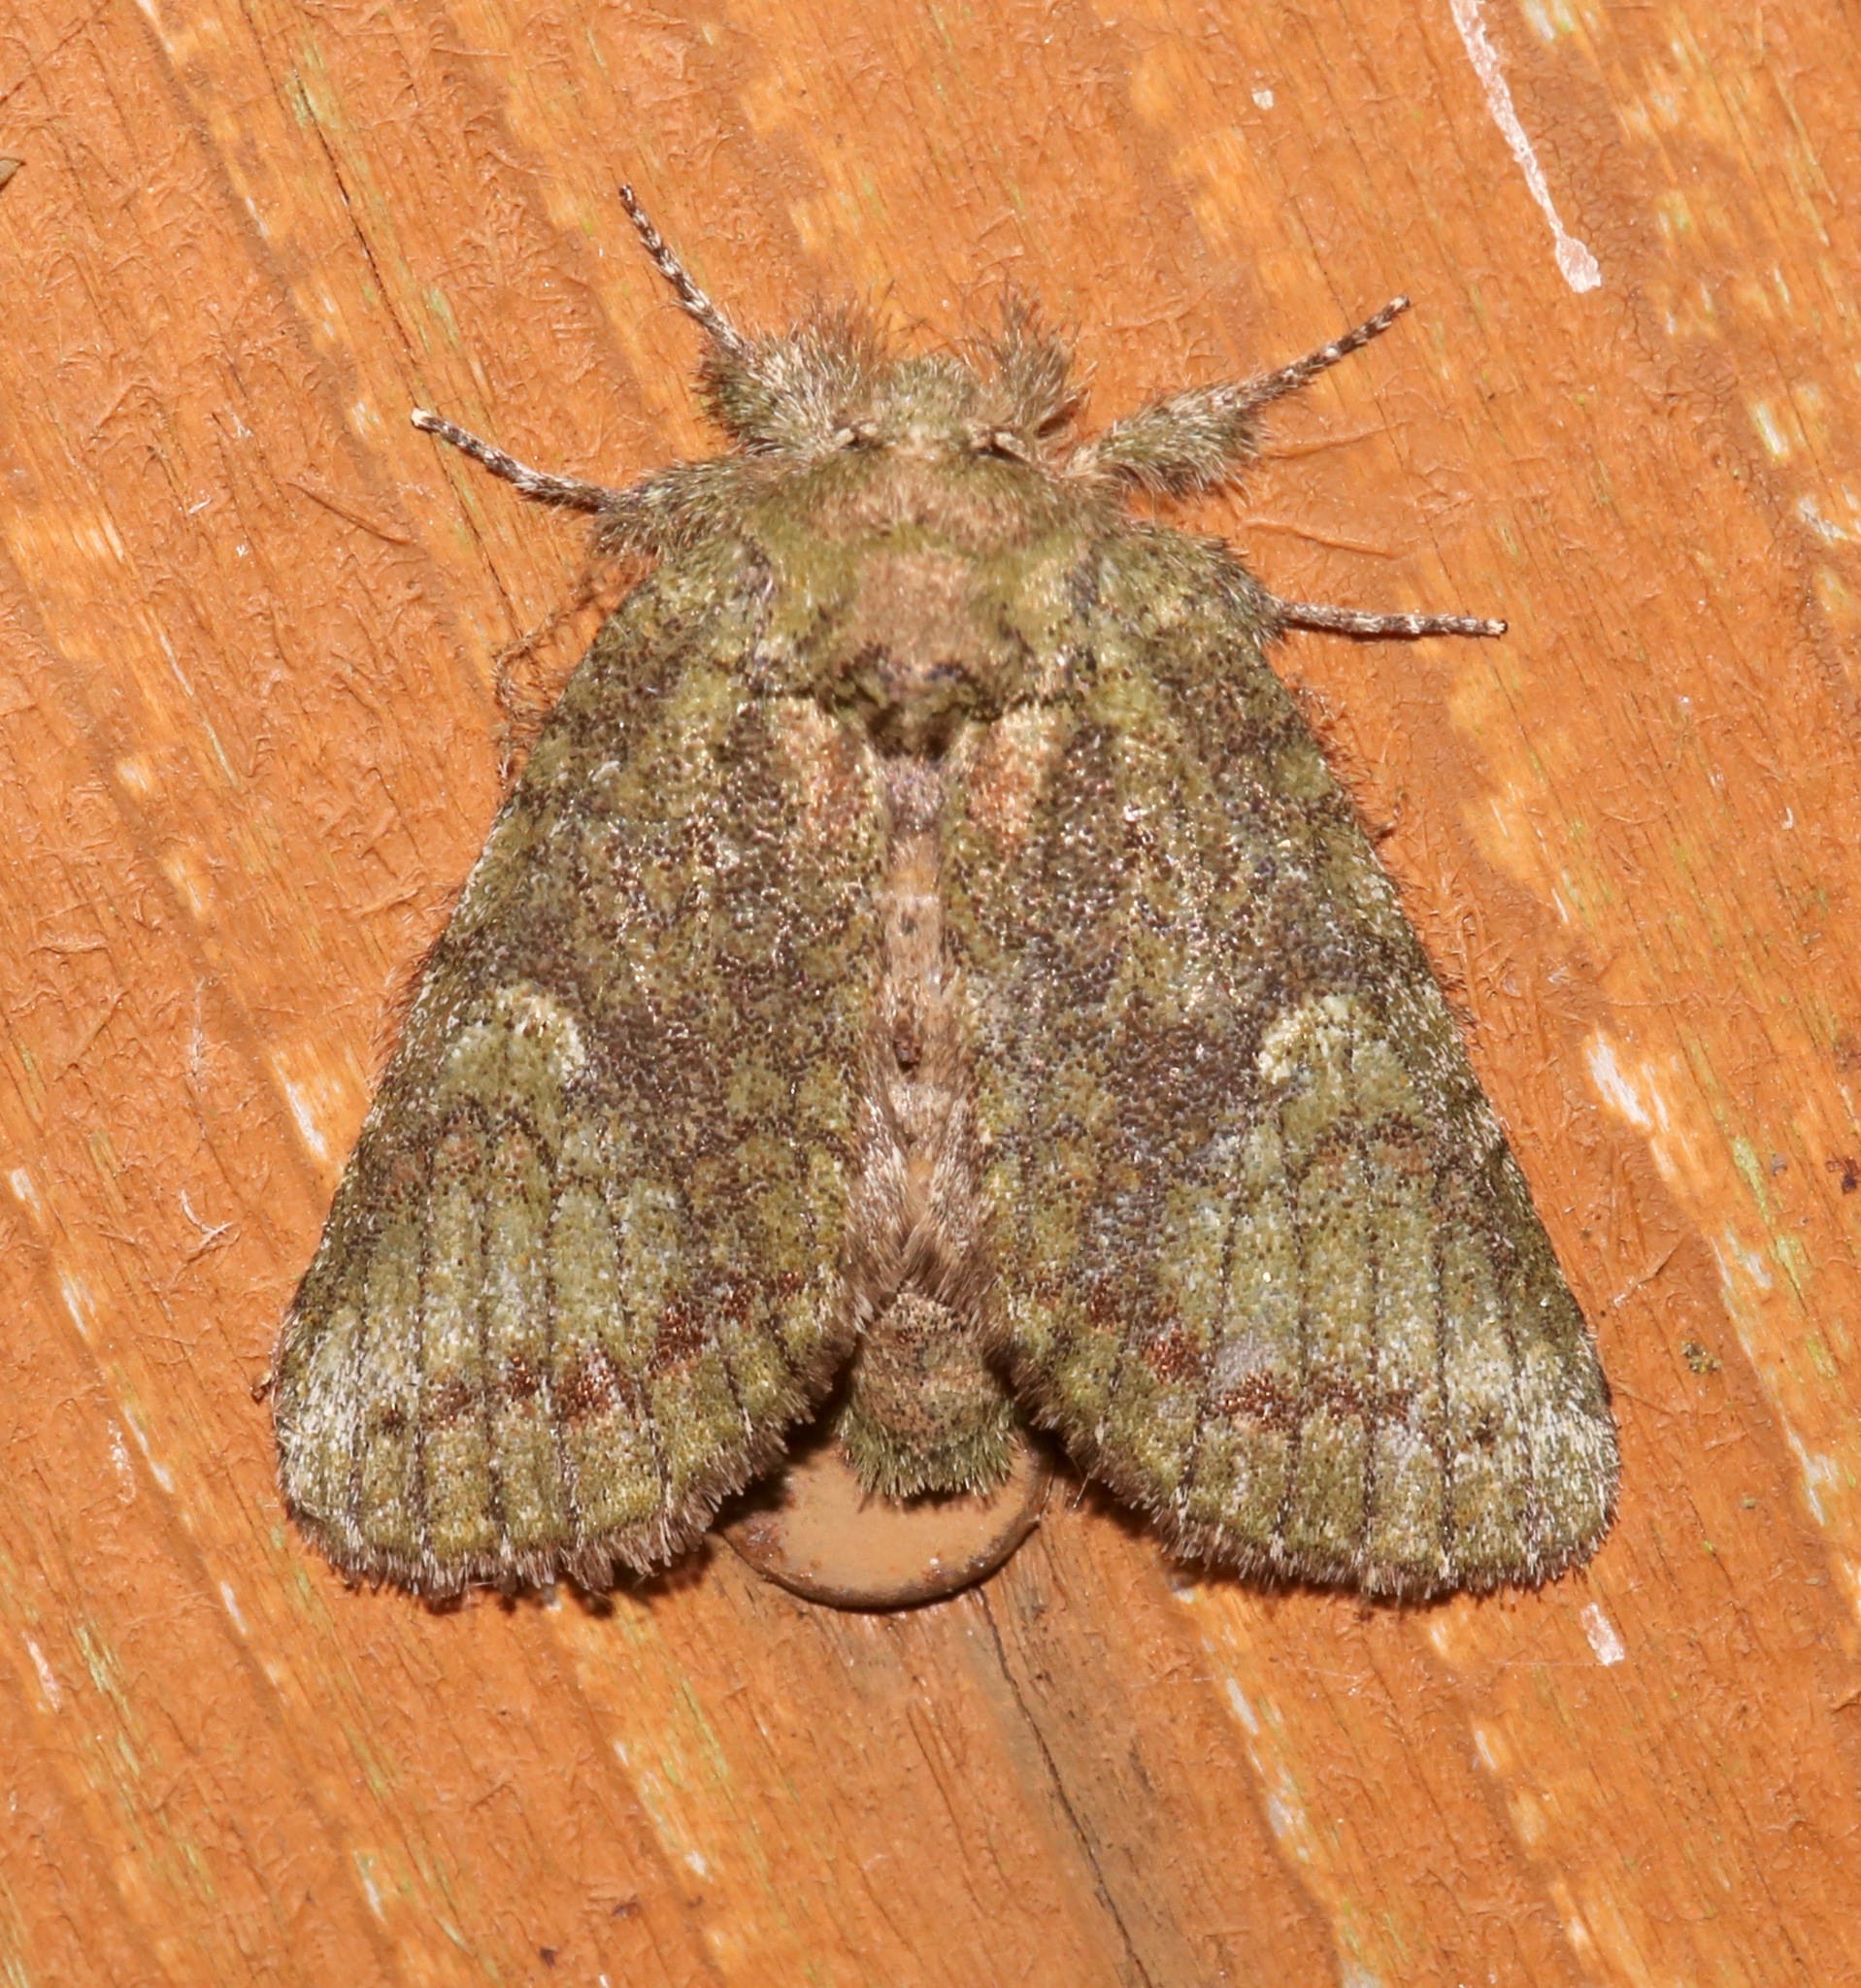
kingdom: Animalia
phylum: Arthropoda
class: Insecta
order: Lepidoptera
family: Notodontidae
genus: Disphragis
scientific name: Disphragis Cecrita biundata
